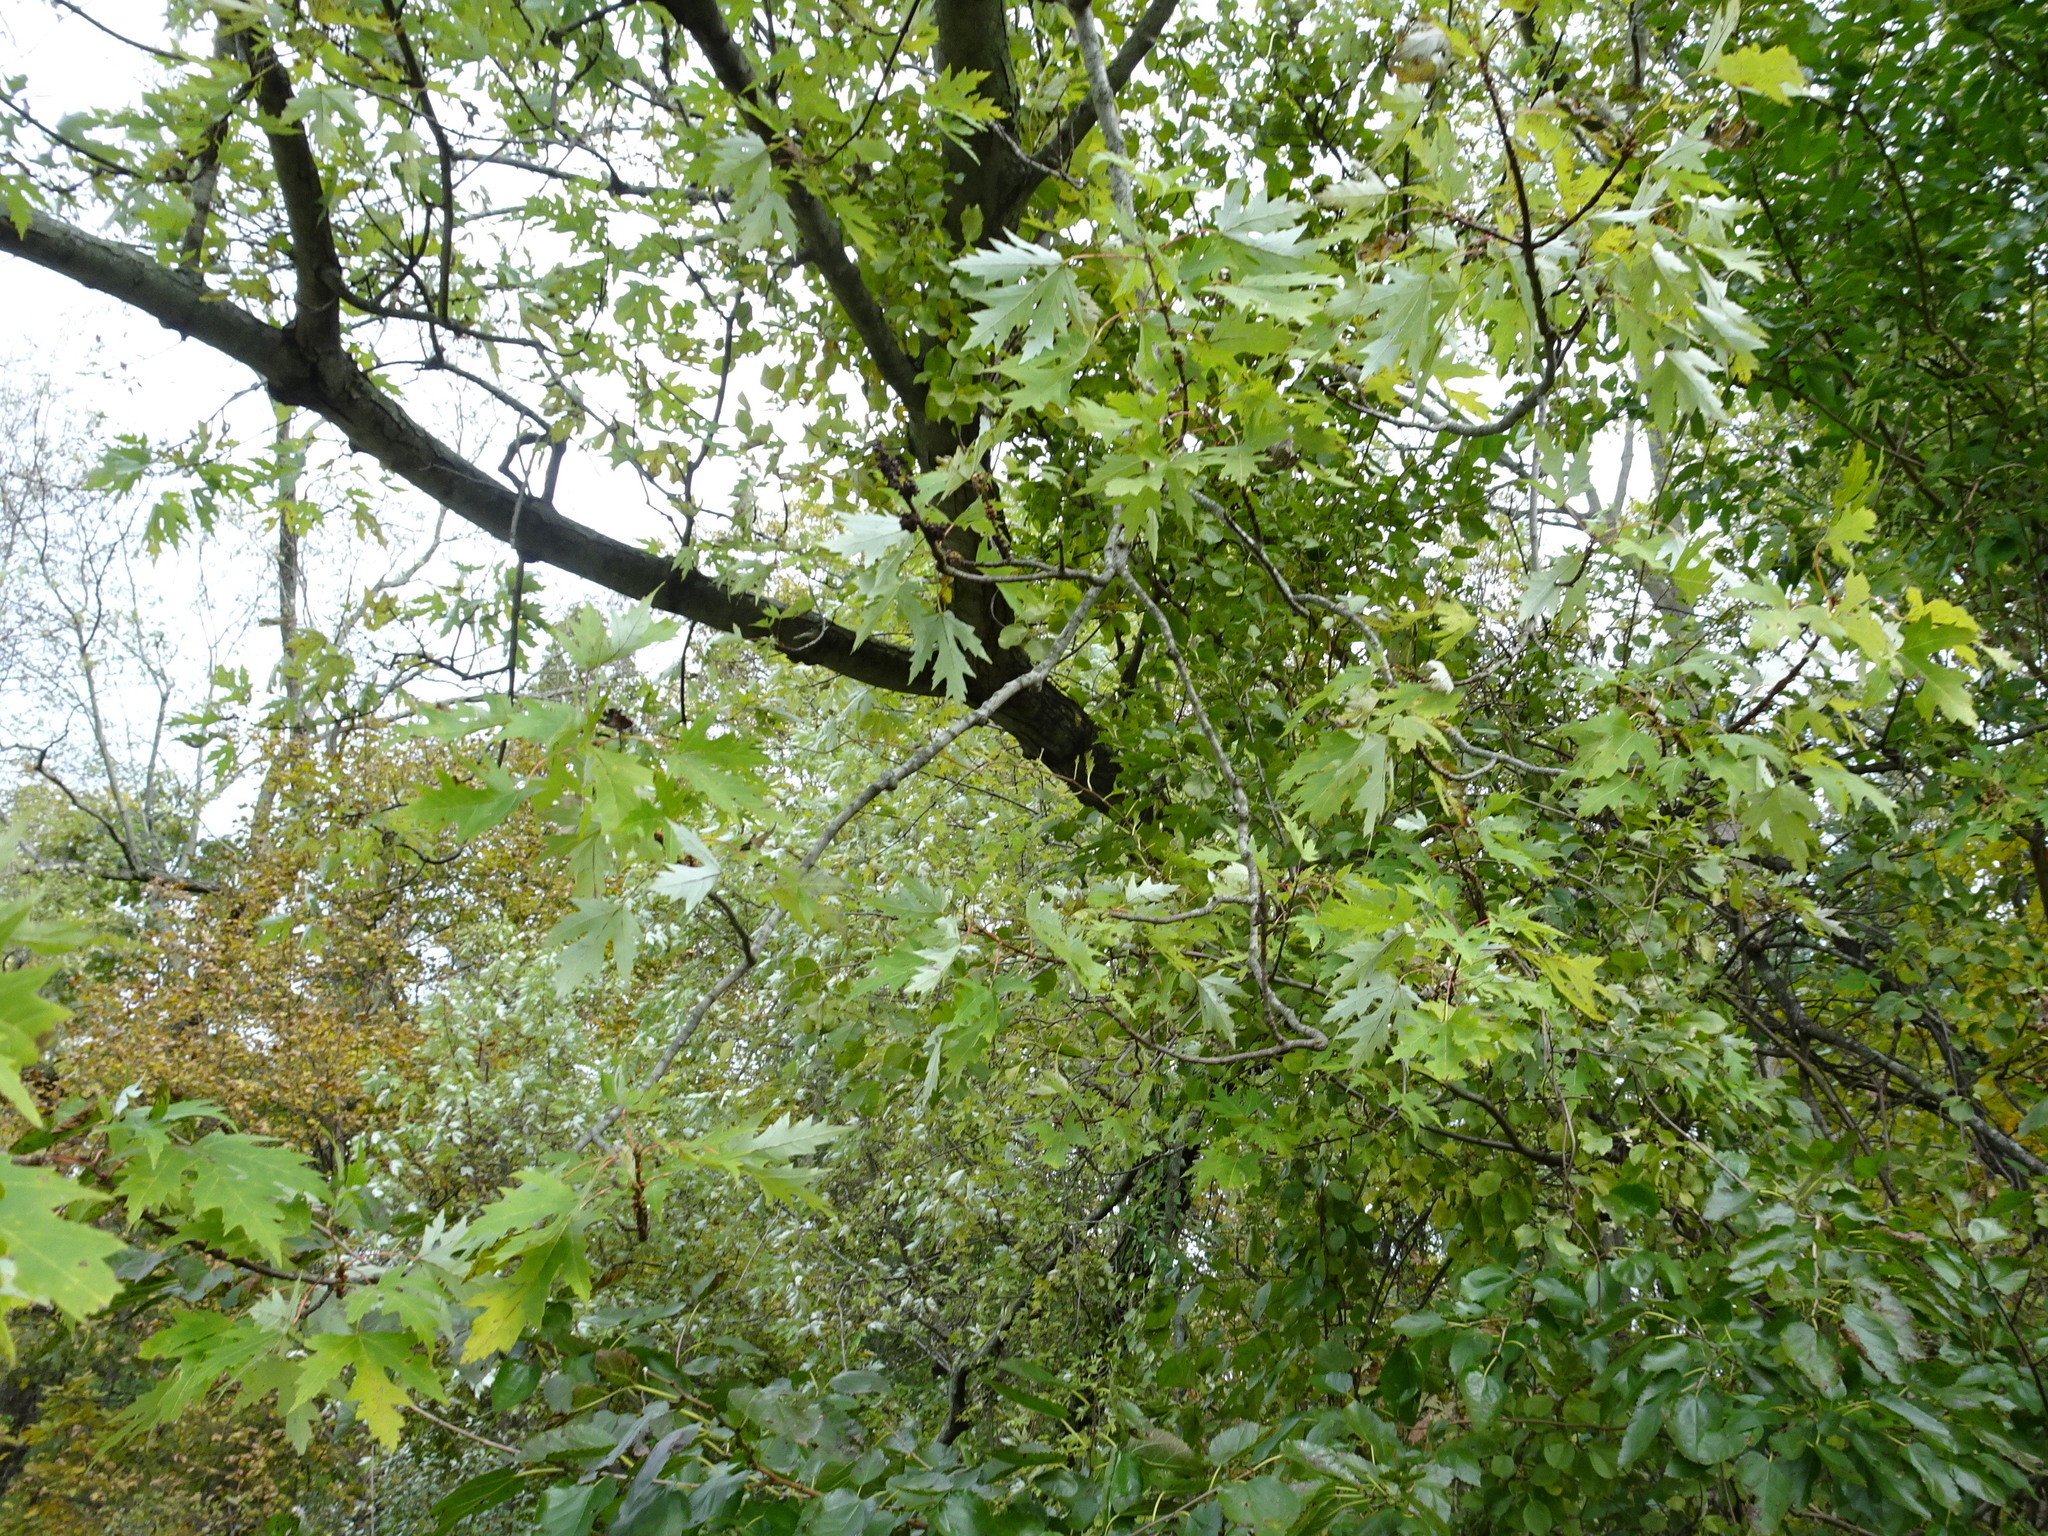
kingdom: Plantae
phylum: Tracheophyta
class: Magnoliopsida
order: Sapindales
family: Sapindaceae
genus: Acer
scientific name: Acer saccharinum
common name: Silver maple
